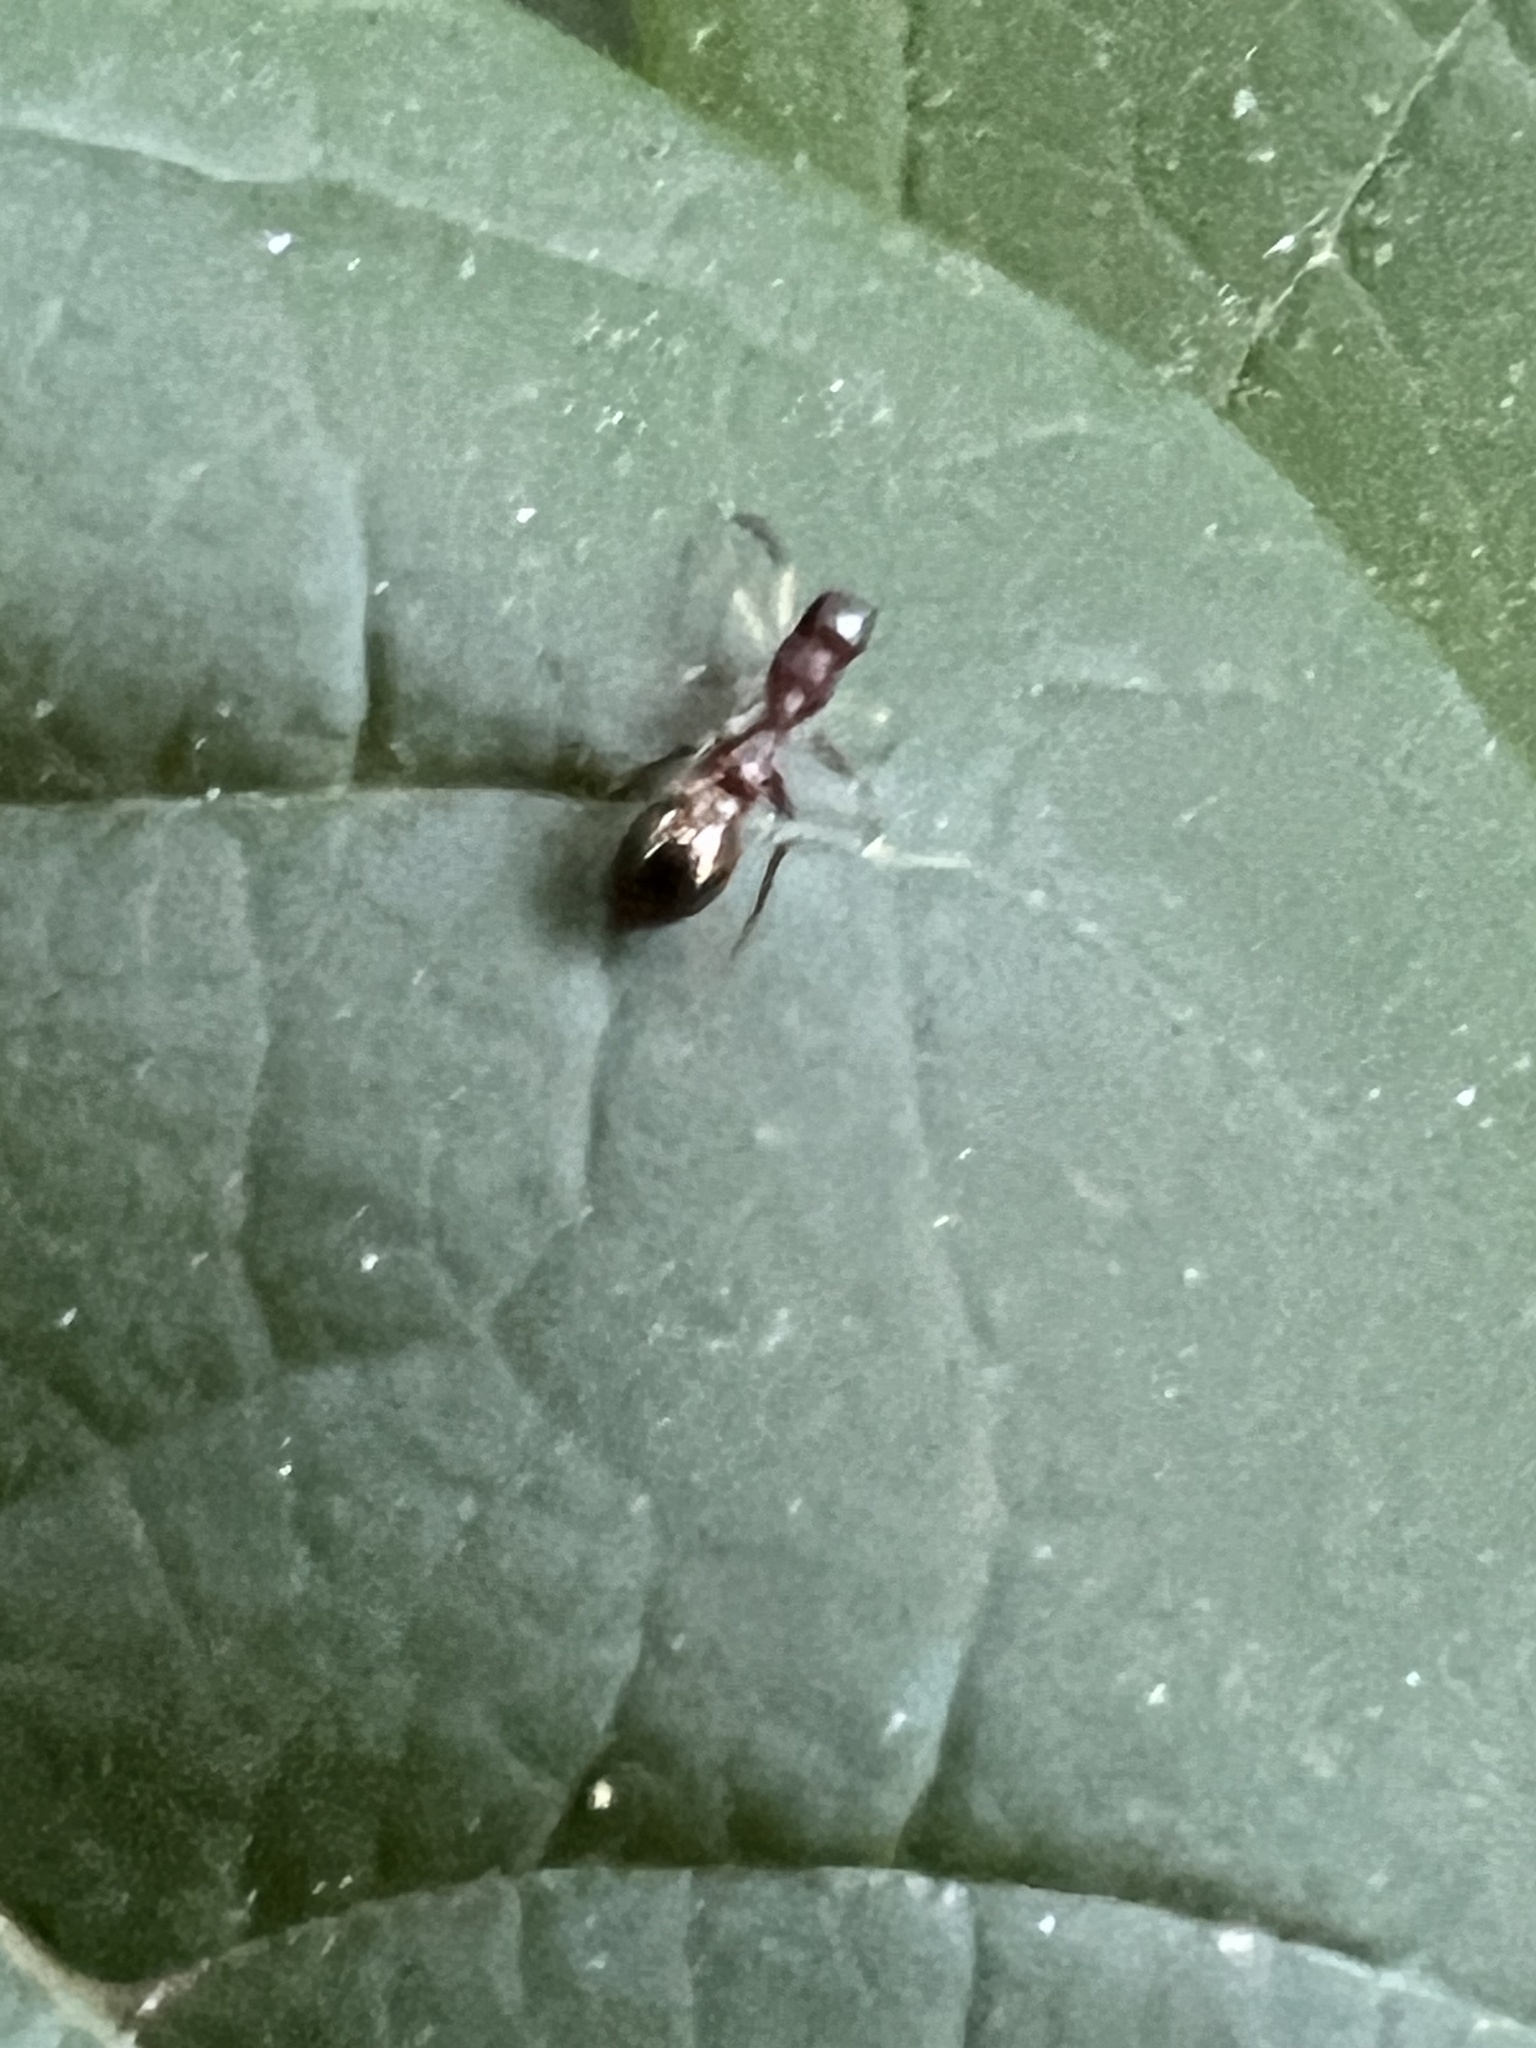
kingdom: Animalia
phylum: Arthropoda
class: Arachnida
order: Araneae
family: Salticidae
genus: Synemosyna
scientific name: Synemosyna formica
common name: Slender ant-mimic jumping spider
